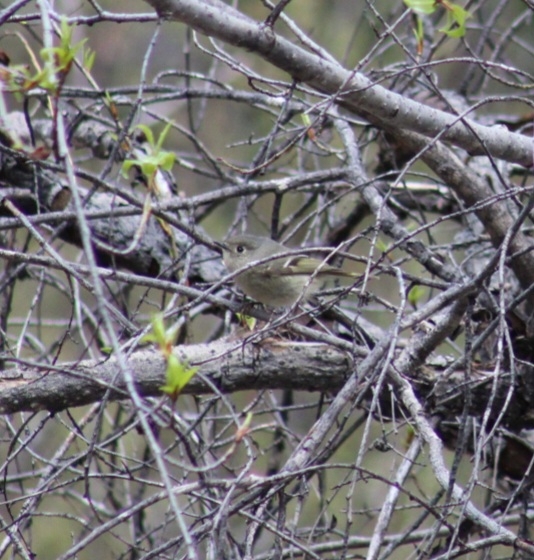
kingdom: Animalia
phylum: Chordata
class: Aves
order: Passeriformes
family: Regulidae
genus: Regulus
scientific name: Regulus calendula
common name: Ruby-crowned kinglet
